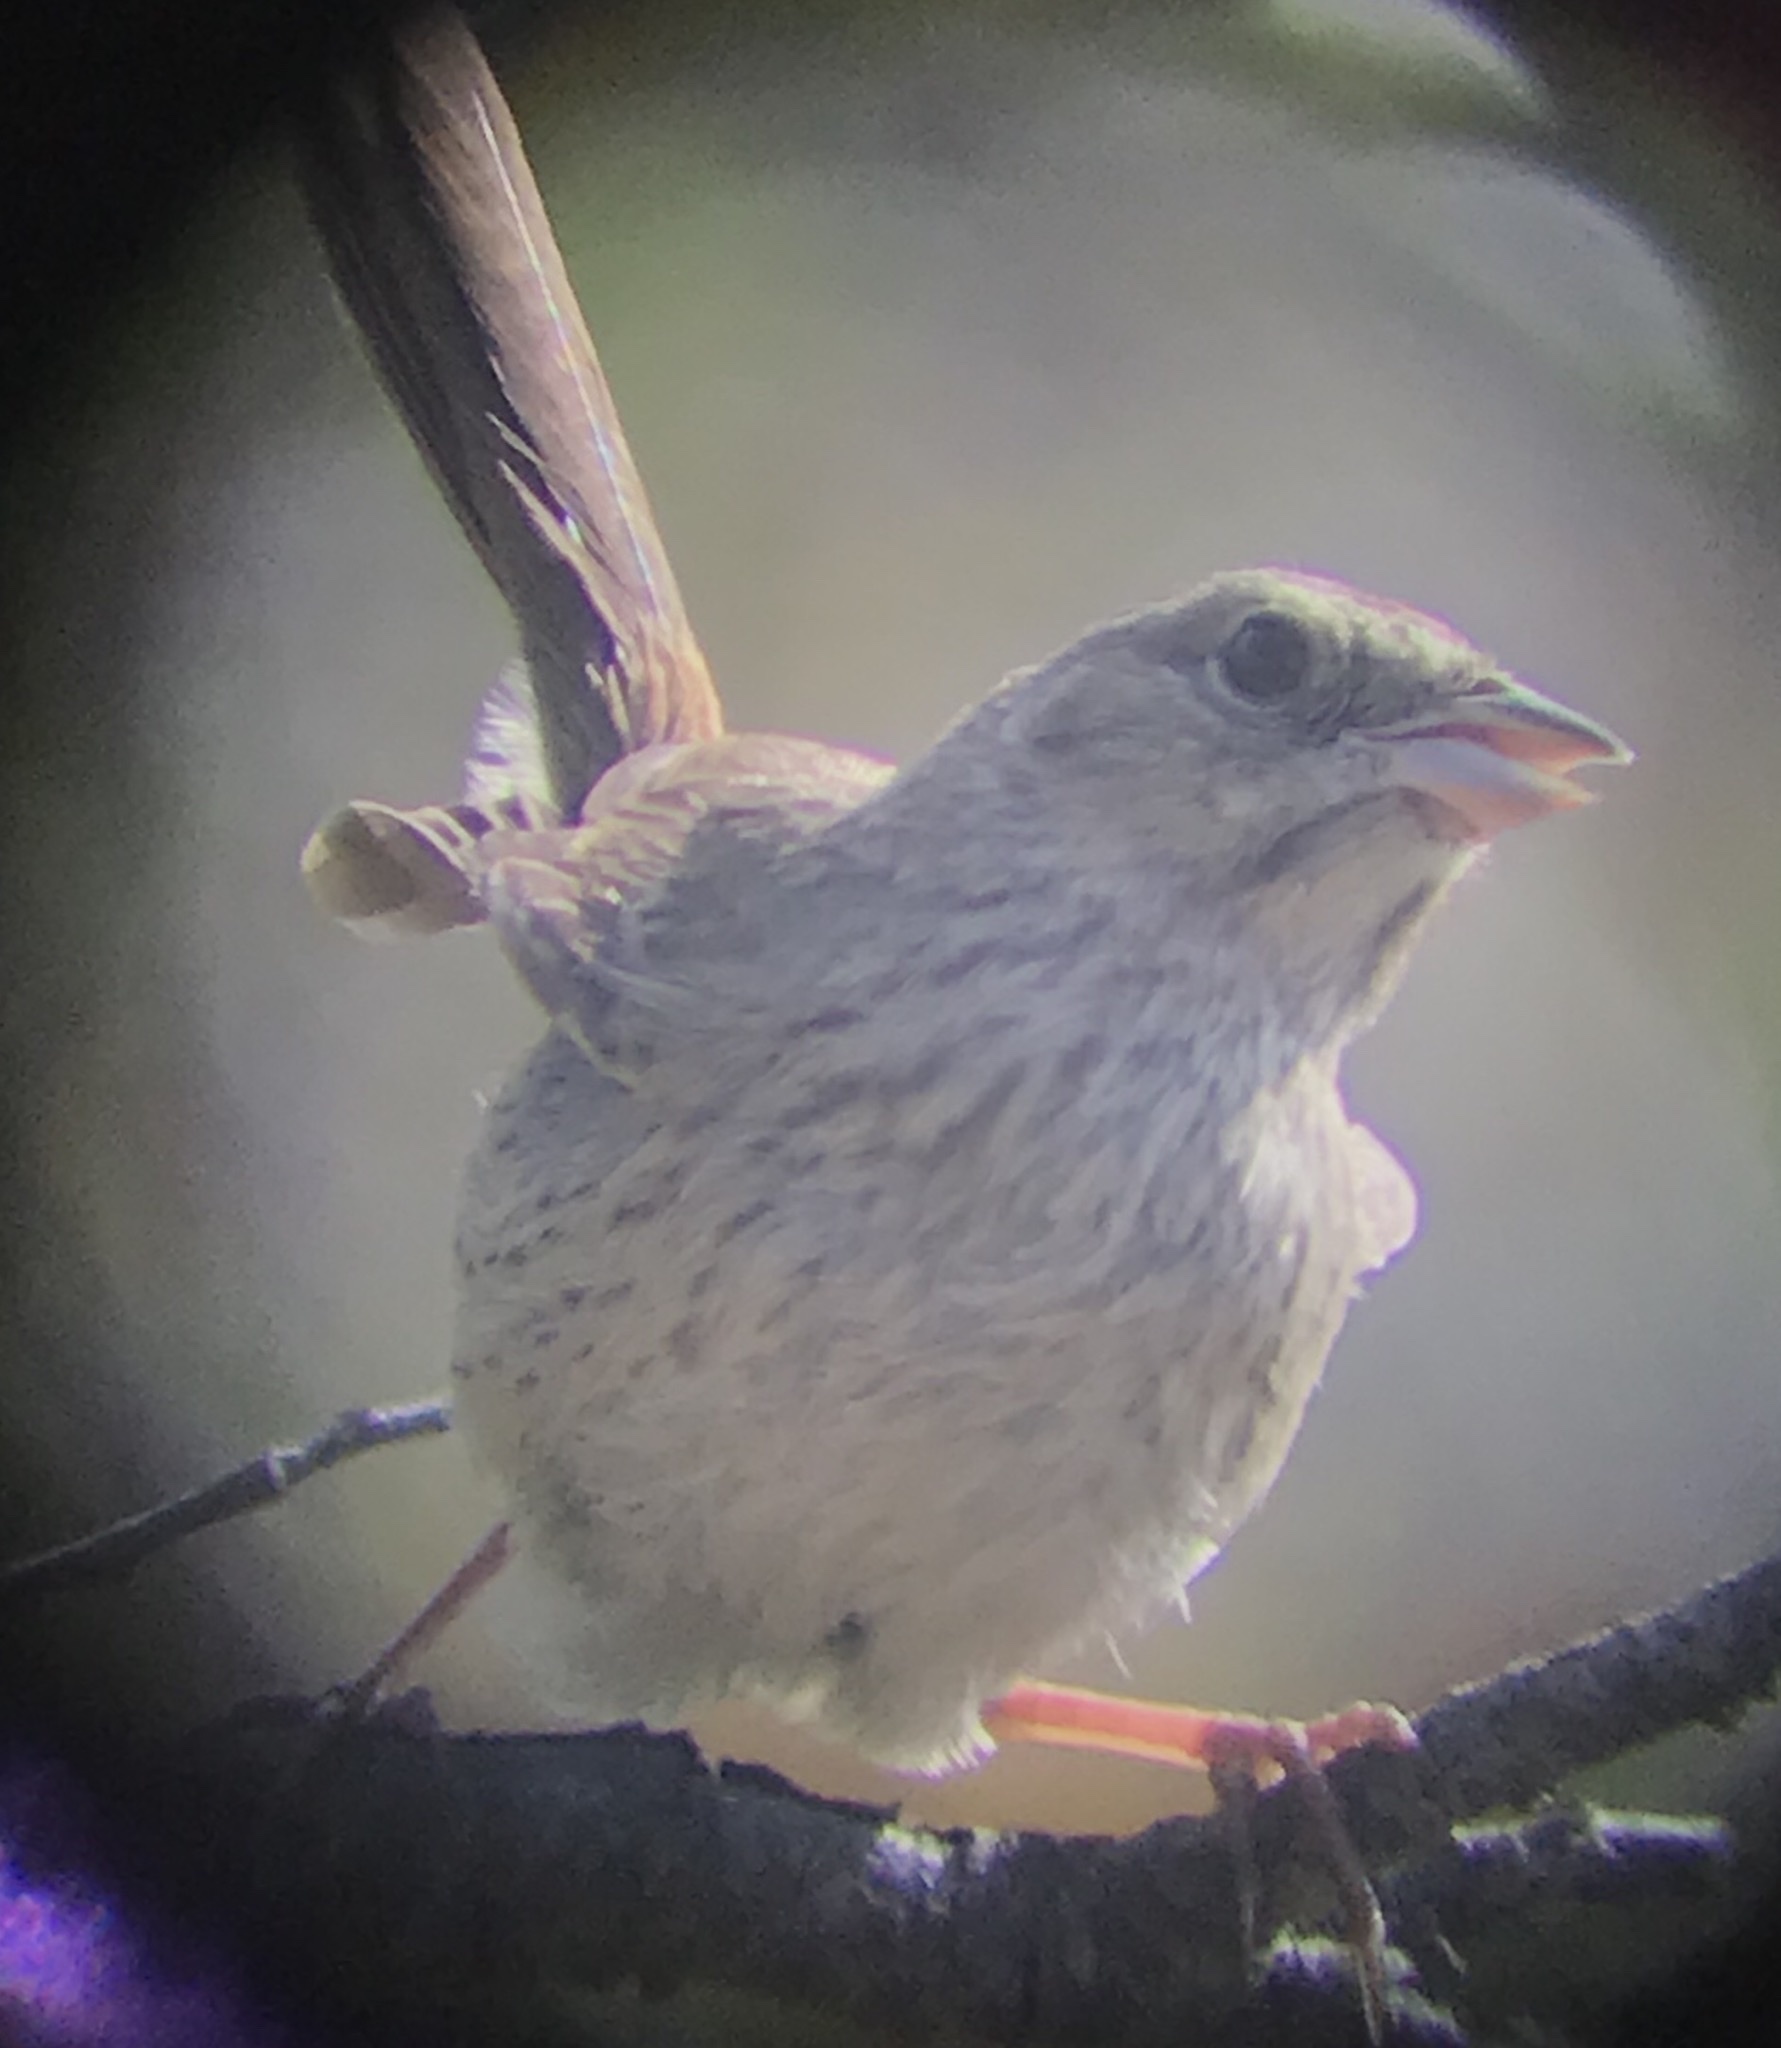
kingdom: Animalia
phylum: Chordata
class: Aves
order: Passeriformes
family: Passerellidae
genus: Aimophila
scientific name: Aimophila ruficeps
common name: Rufous-crowned sparrow
